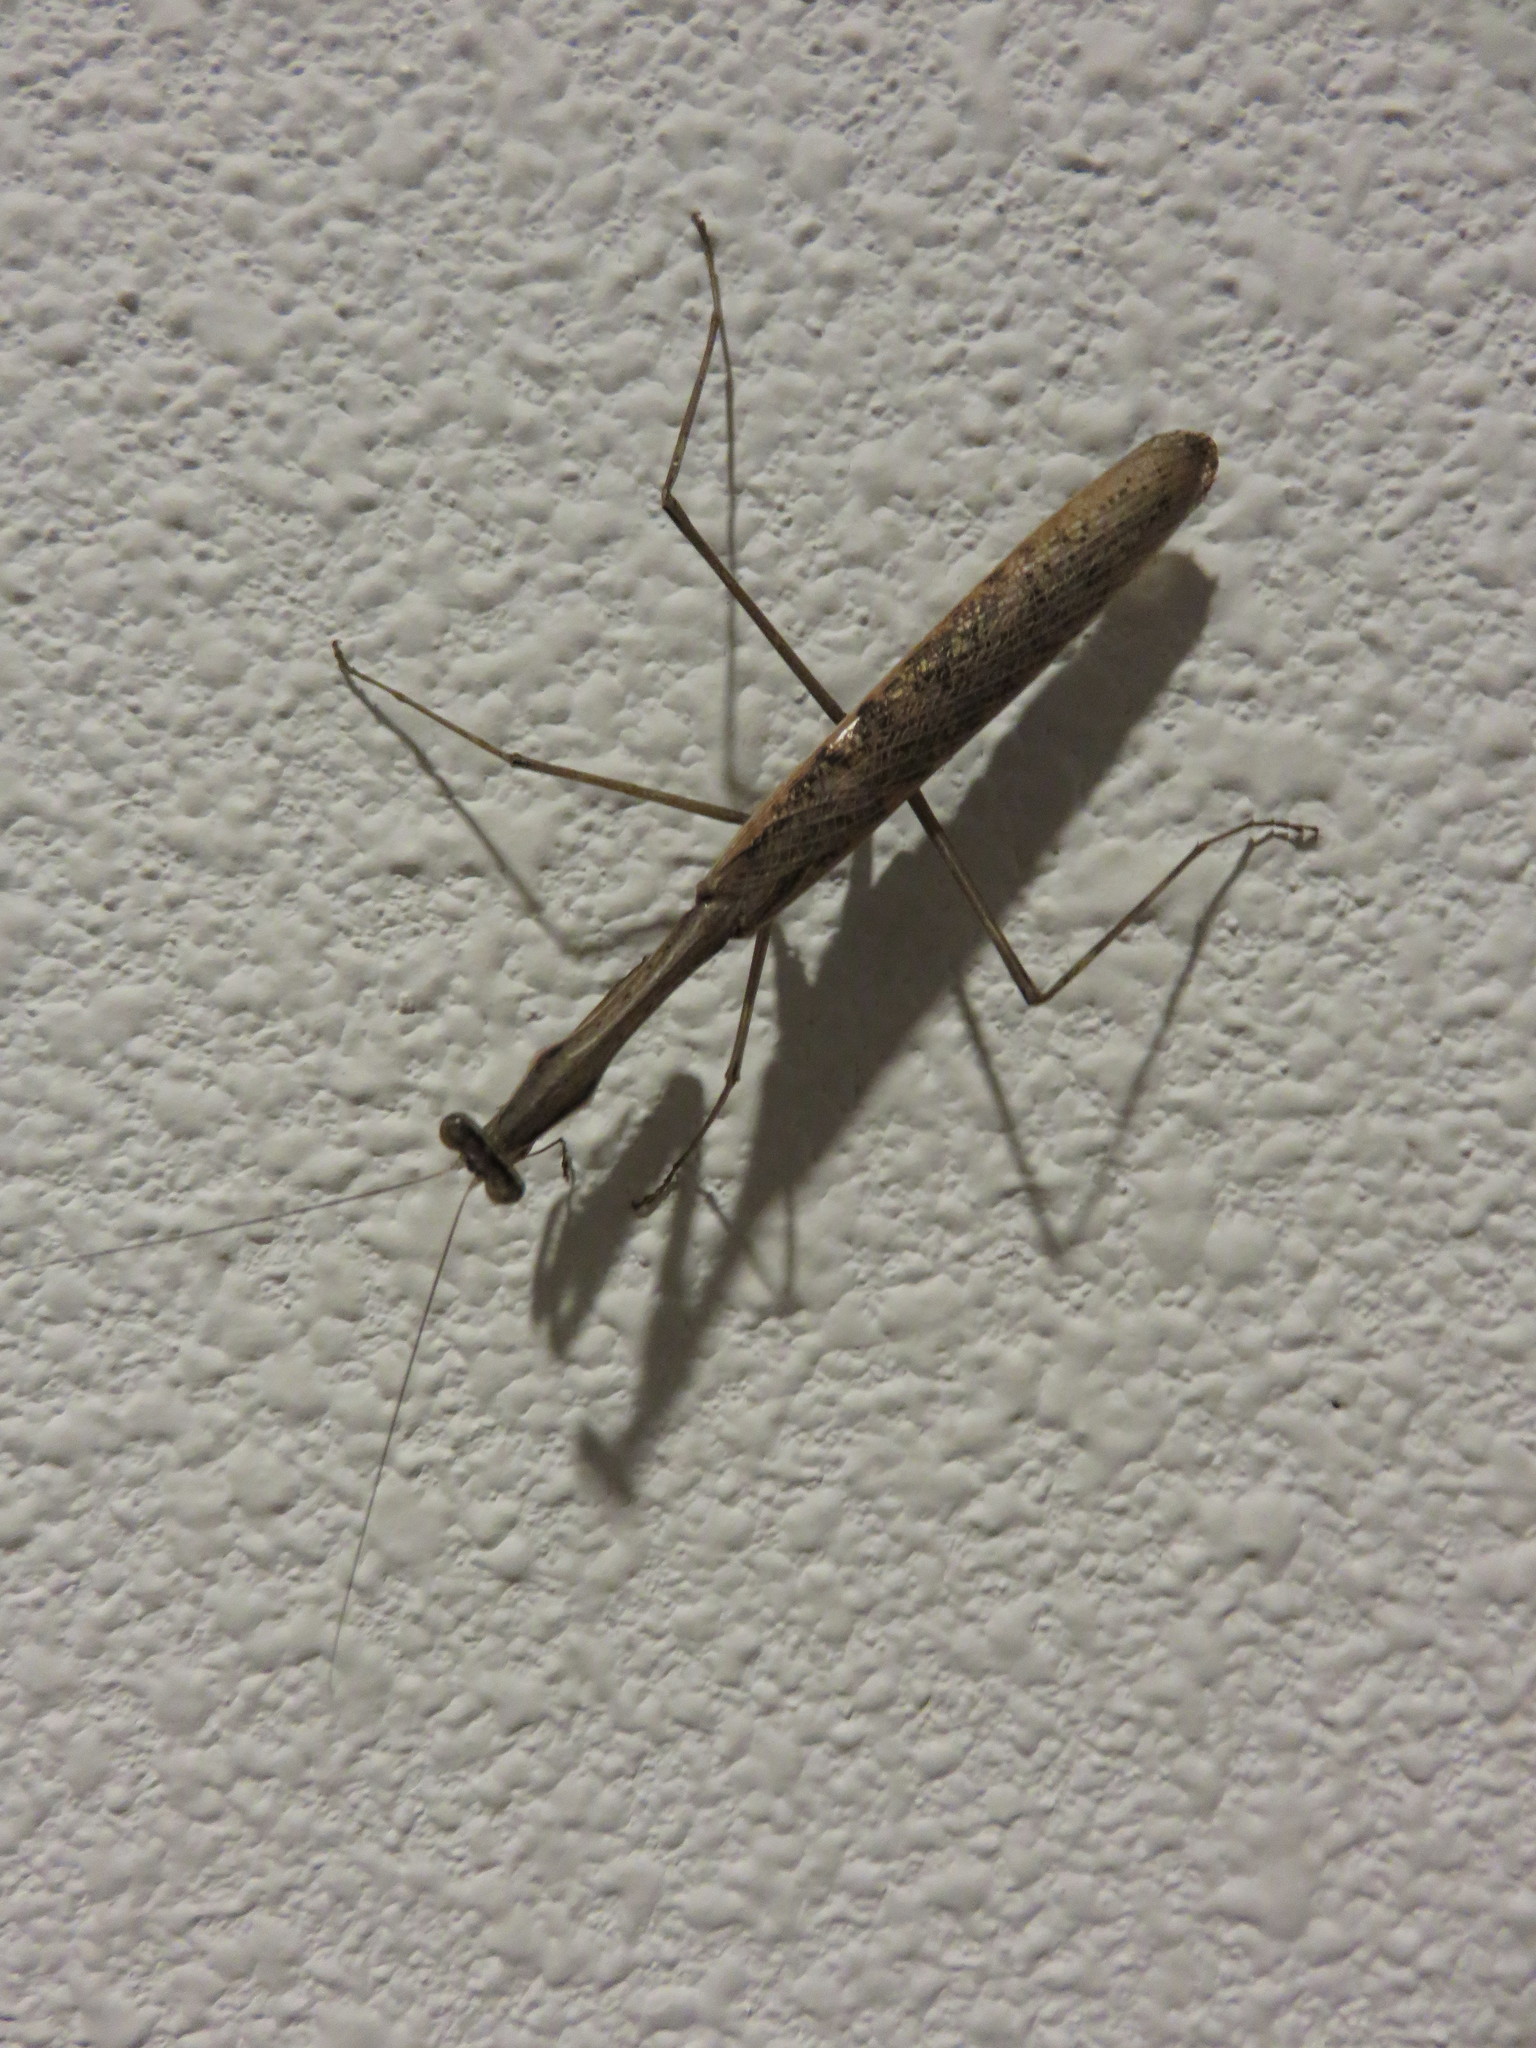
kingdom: Animalia
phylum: Arthropoda
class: Insecta
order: Mantodea
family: Mantidae
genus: Statilia
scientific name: Statilia nemoralis
